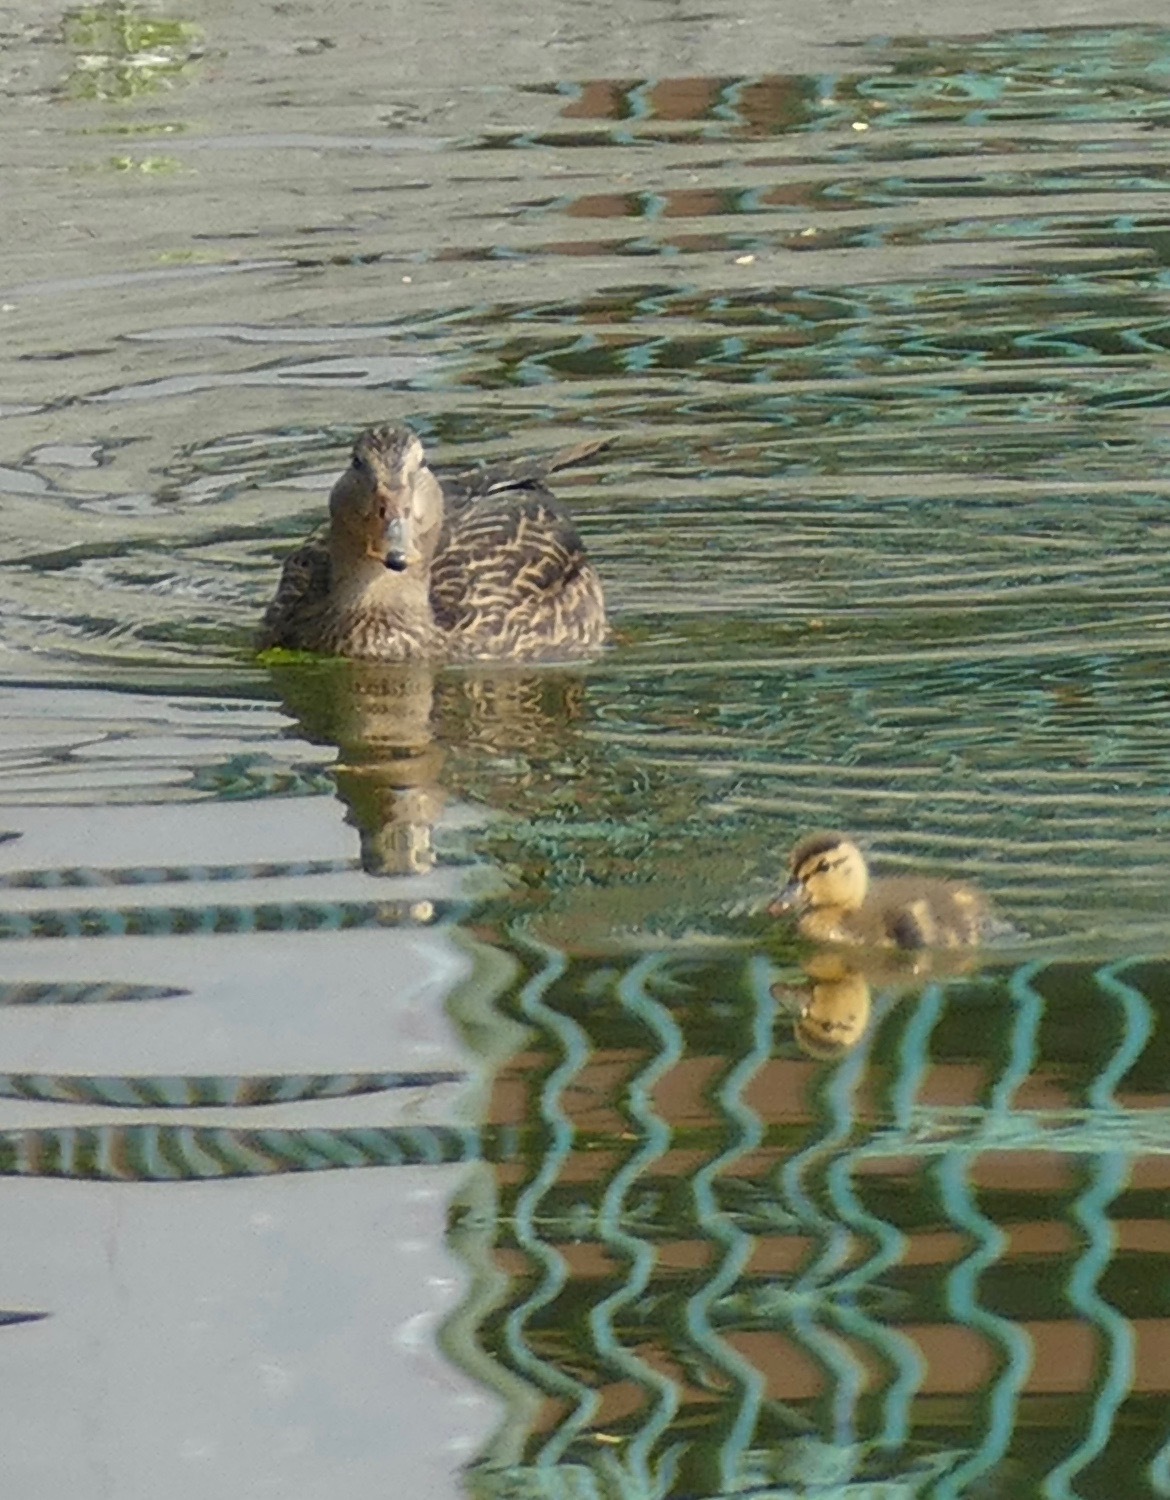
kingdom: Animalia
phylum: Chordata
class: Aves
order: Anseriformes
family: Anatidae
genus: Anas
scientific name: Anas diazi
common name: Mexican duck
